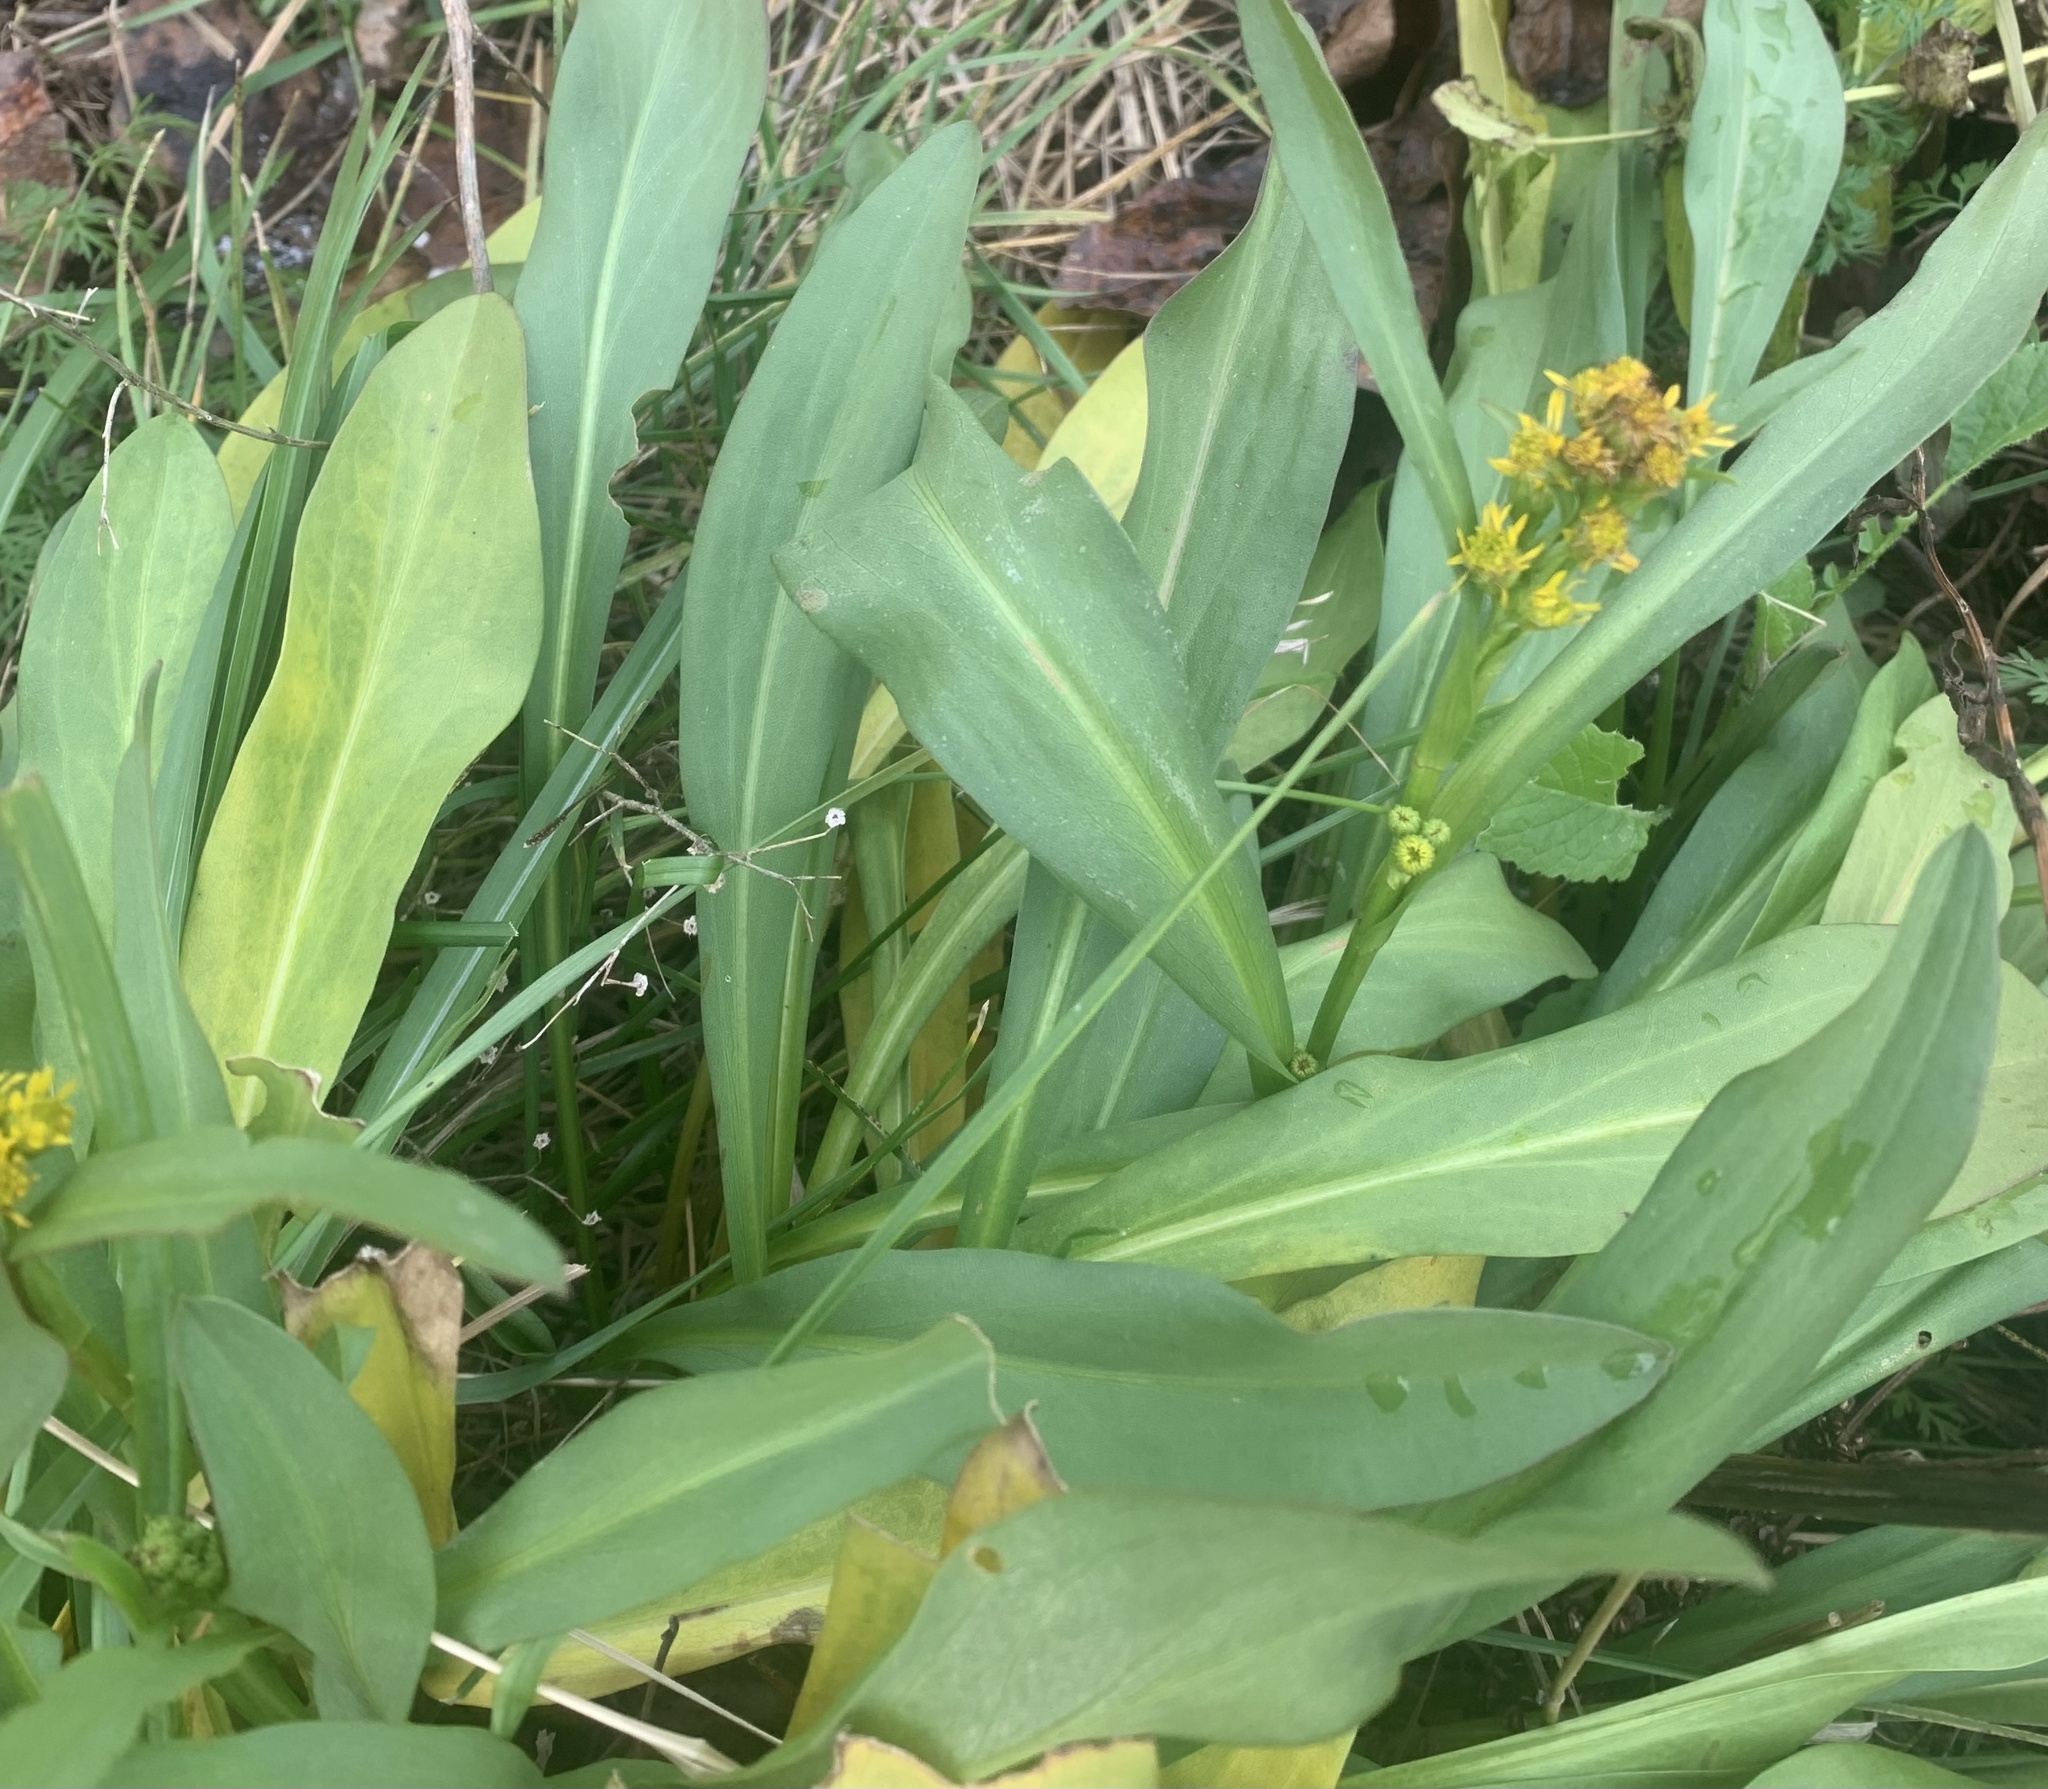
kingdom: Plantae
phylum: Tracheophyta
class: Magnoliopsida
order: Asterales
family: Asteraceae
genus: Solidago
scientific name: Solidago sempervirens
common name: Salt-marsh goldenrod
